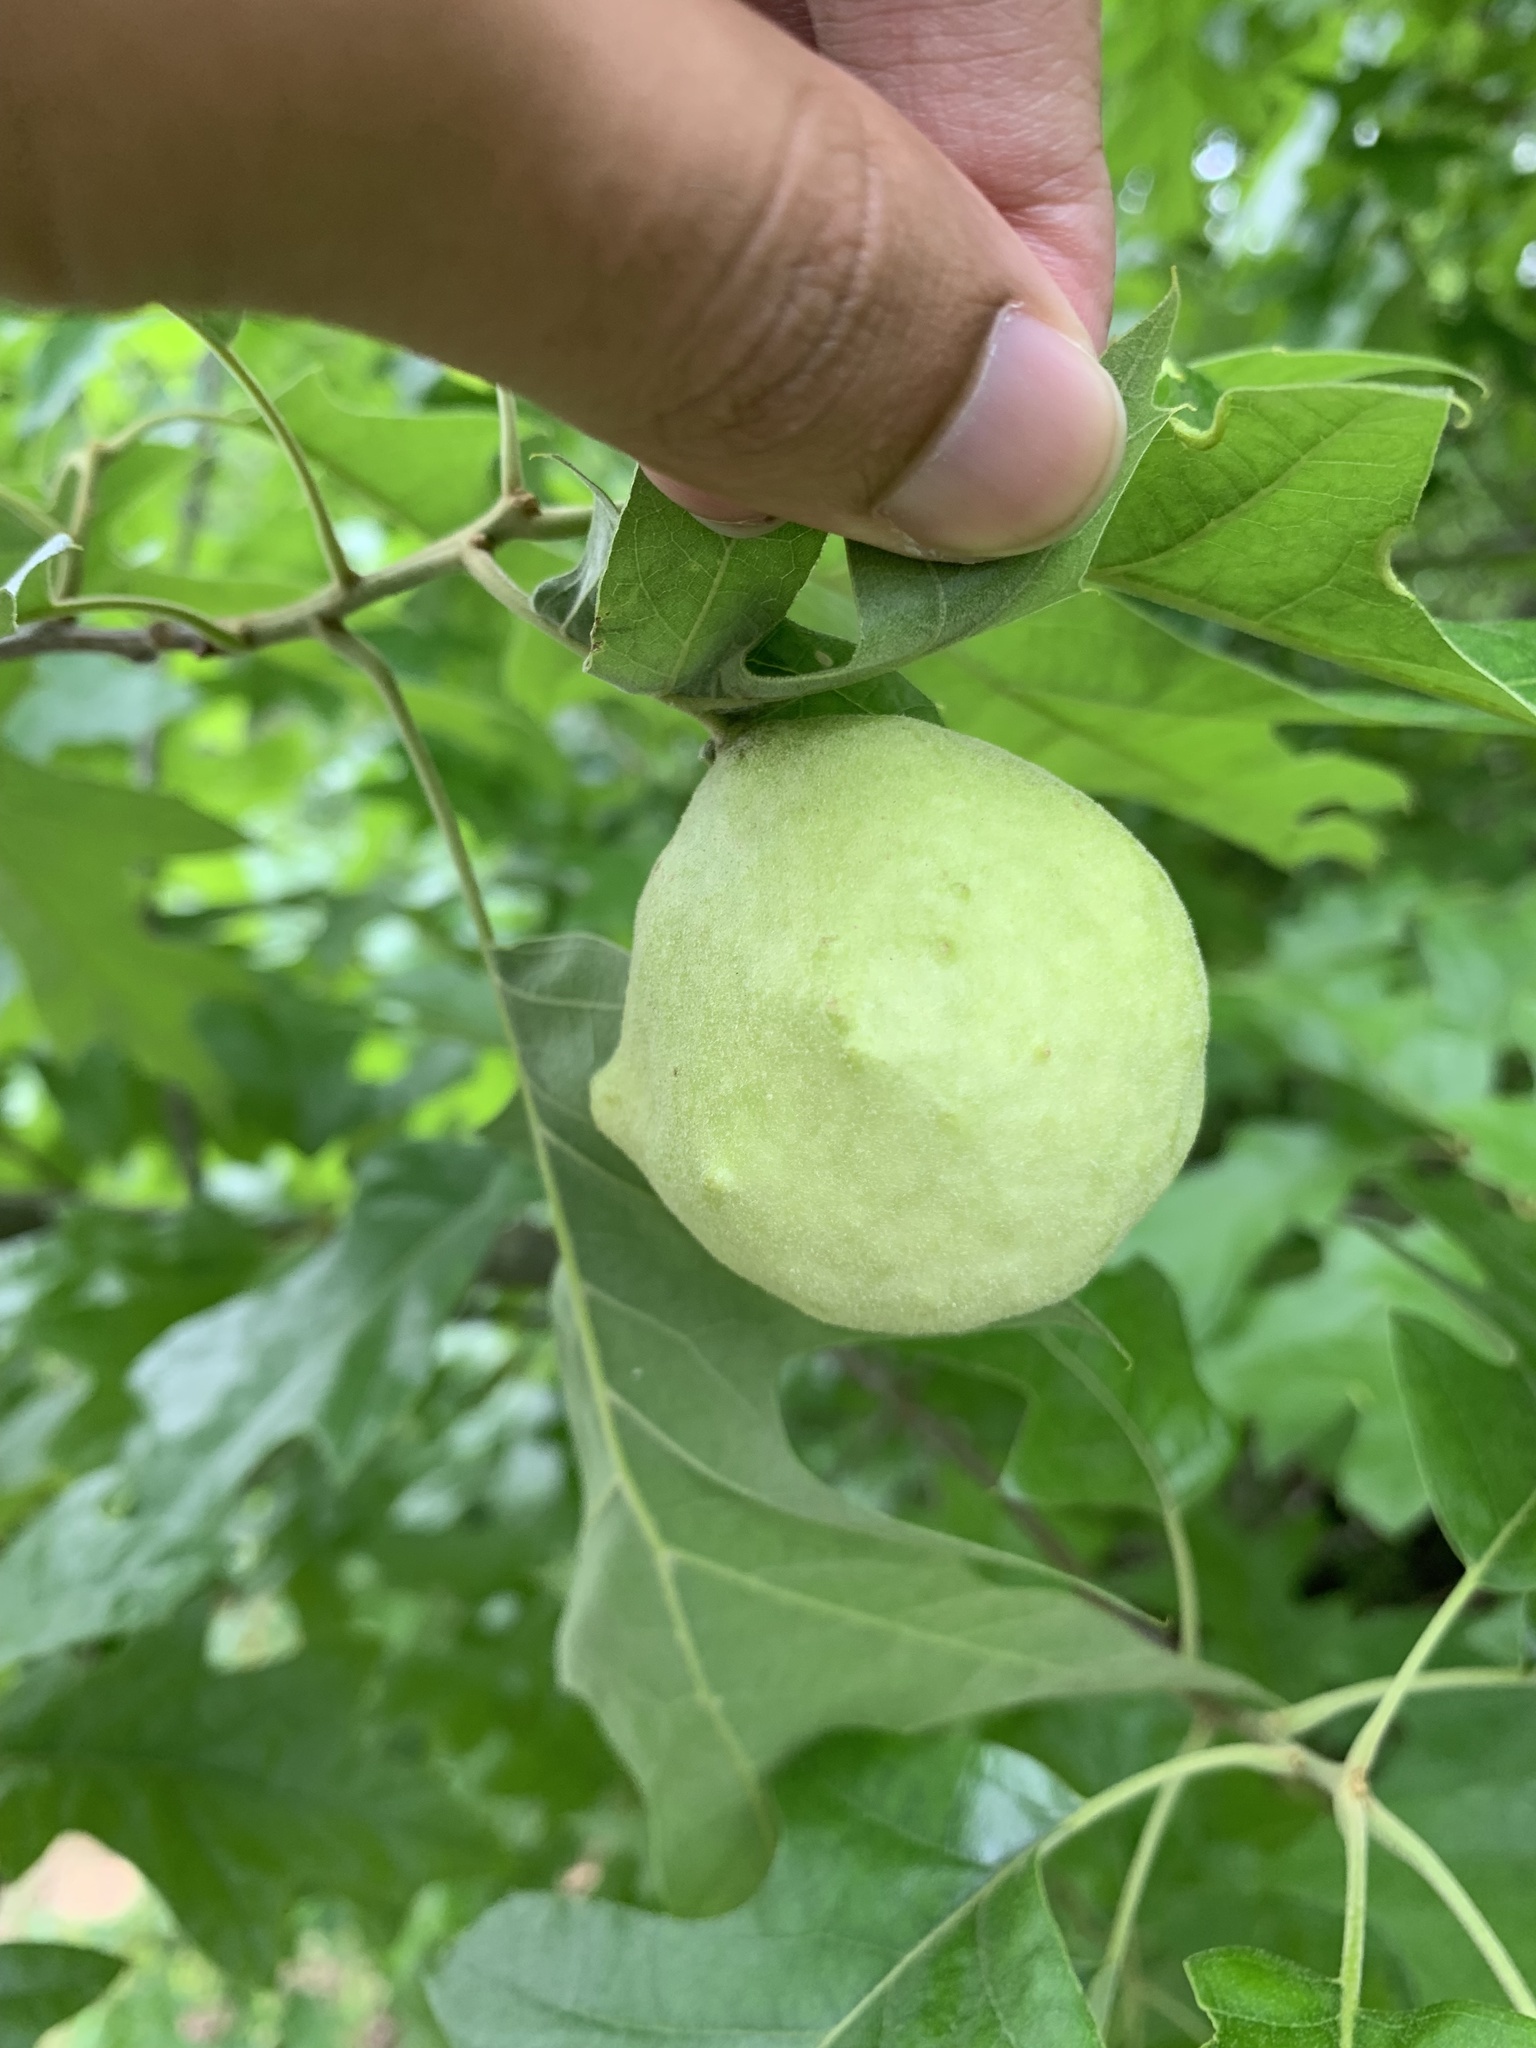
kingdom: Animalia
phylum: Arthropoda
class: Insecta
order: Hymenoptera
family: Cynipidae
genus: Amphibolips
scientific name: Amphibolips
